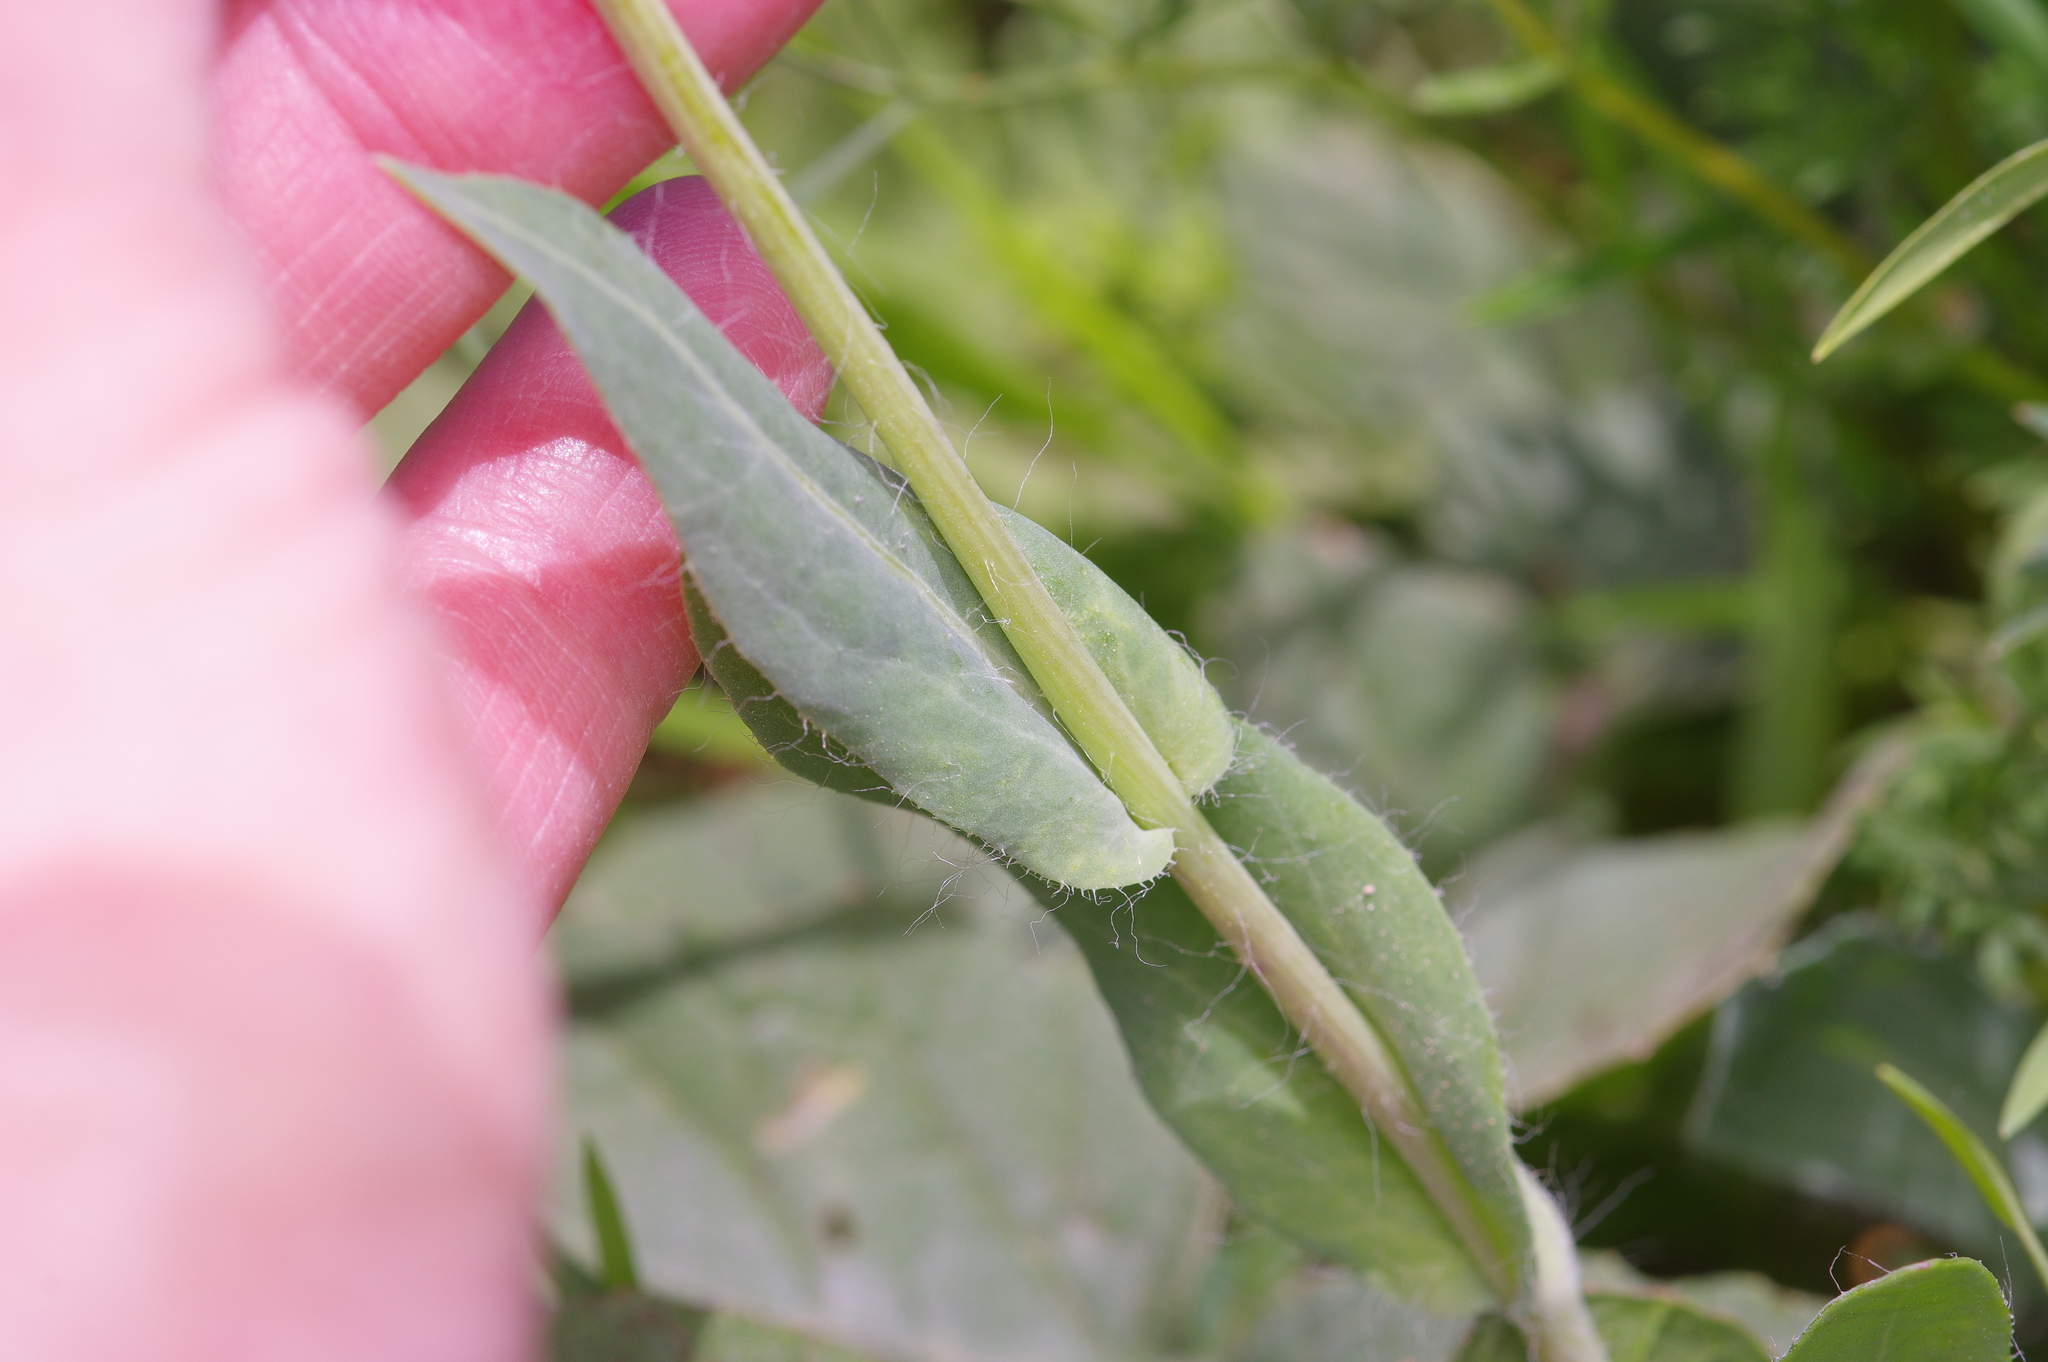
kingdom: Plantae
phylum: Tracheophyta
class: Magnoliopsida
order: Asterales
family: Asteraceae
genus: Amblyolepis
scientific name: Amblyolepis setigera
